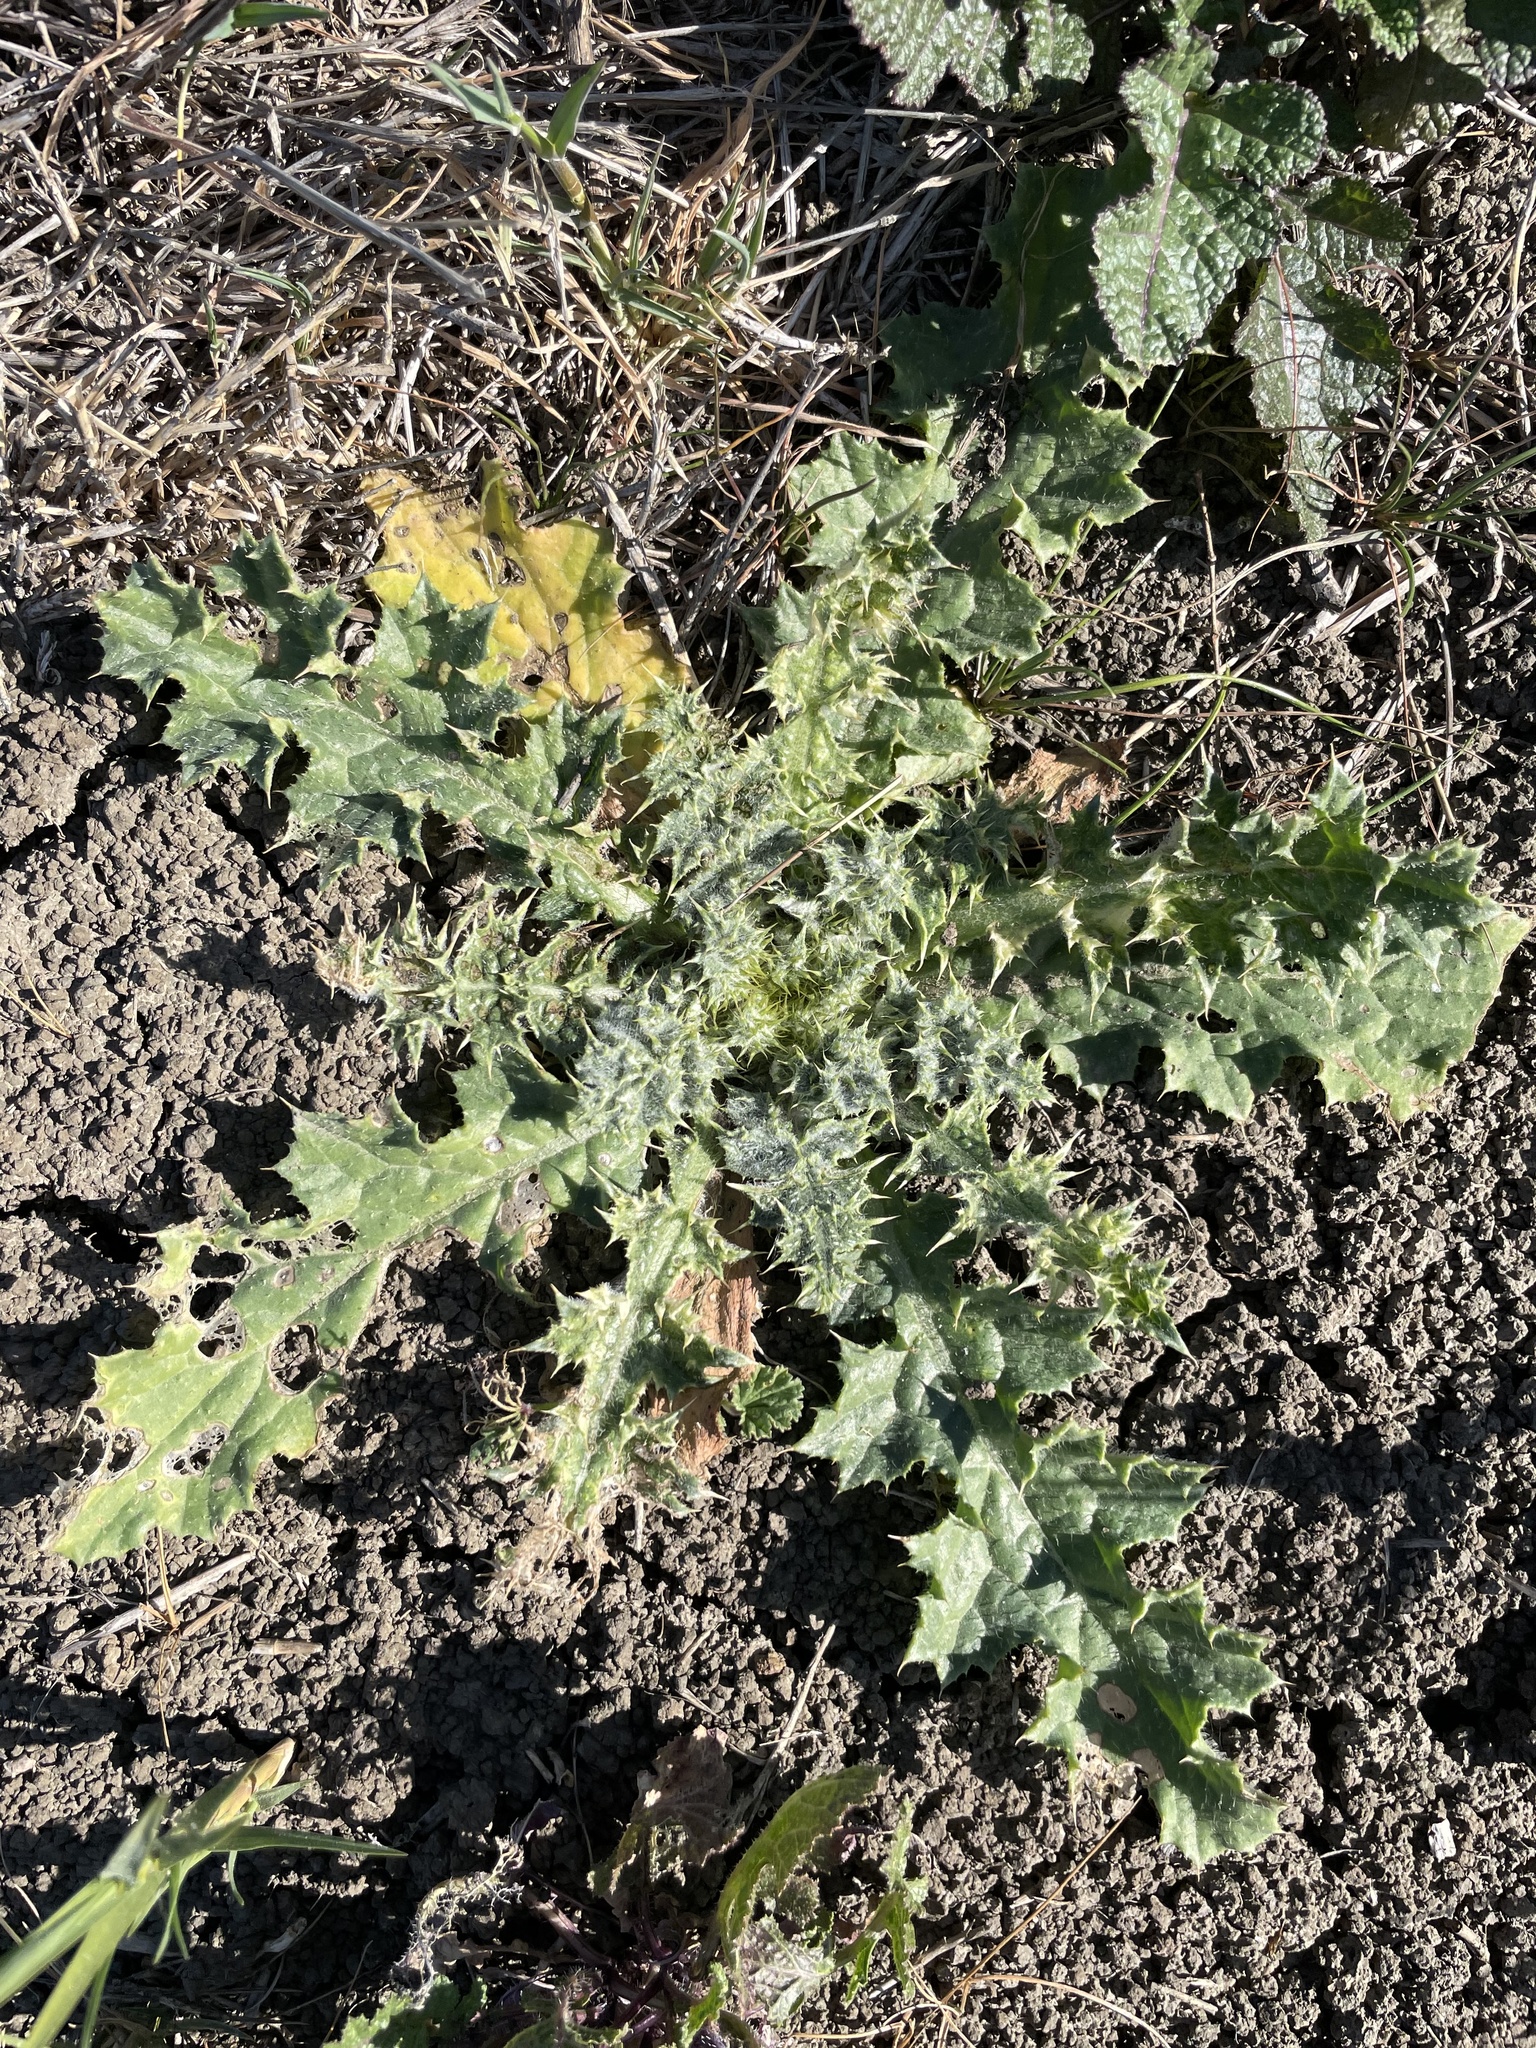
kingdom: Plantae
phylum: Tracheophyta
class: Magnoliopsida
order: Asterales
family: Asteraceae
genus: Carduus
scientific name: Carduus tenuiflorus
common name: Slender thistle
